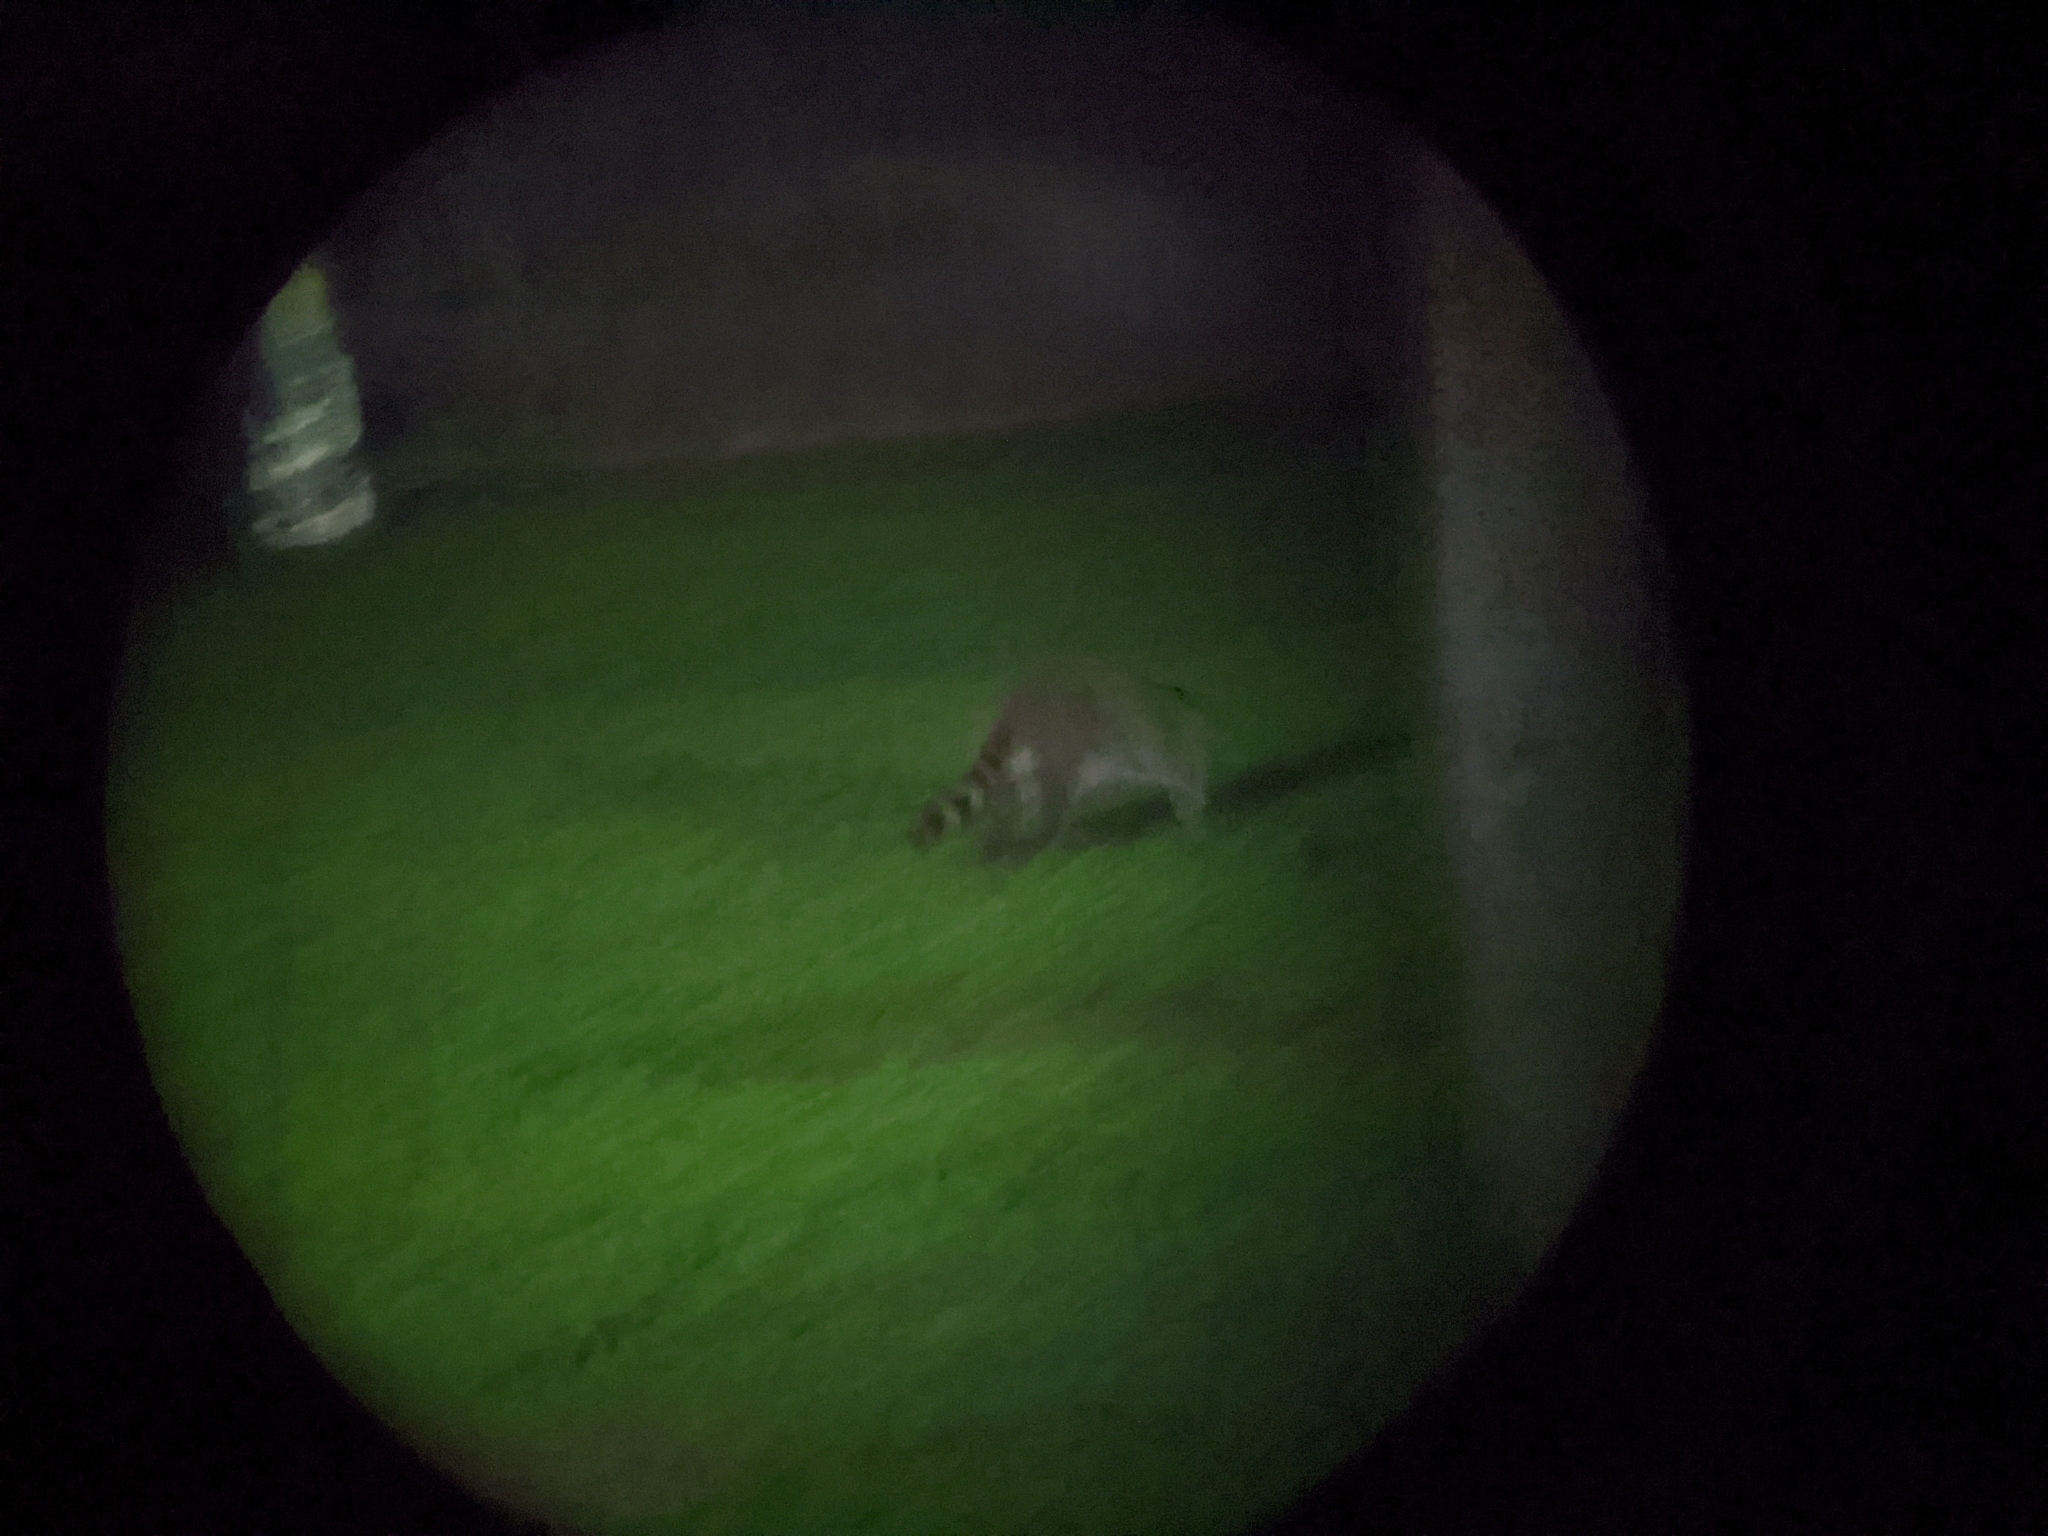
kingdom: Animalia
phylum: Chordata
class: Mammalia
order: Carnivora
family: Procyonidae
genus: Procyon
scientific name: Procyon lotor
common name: Raccoon
